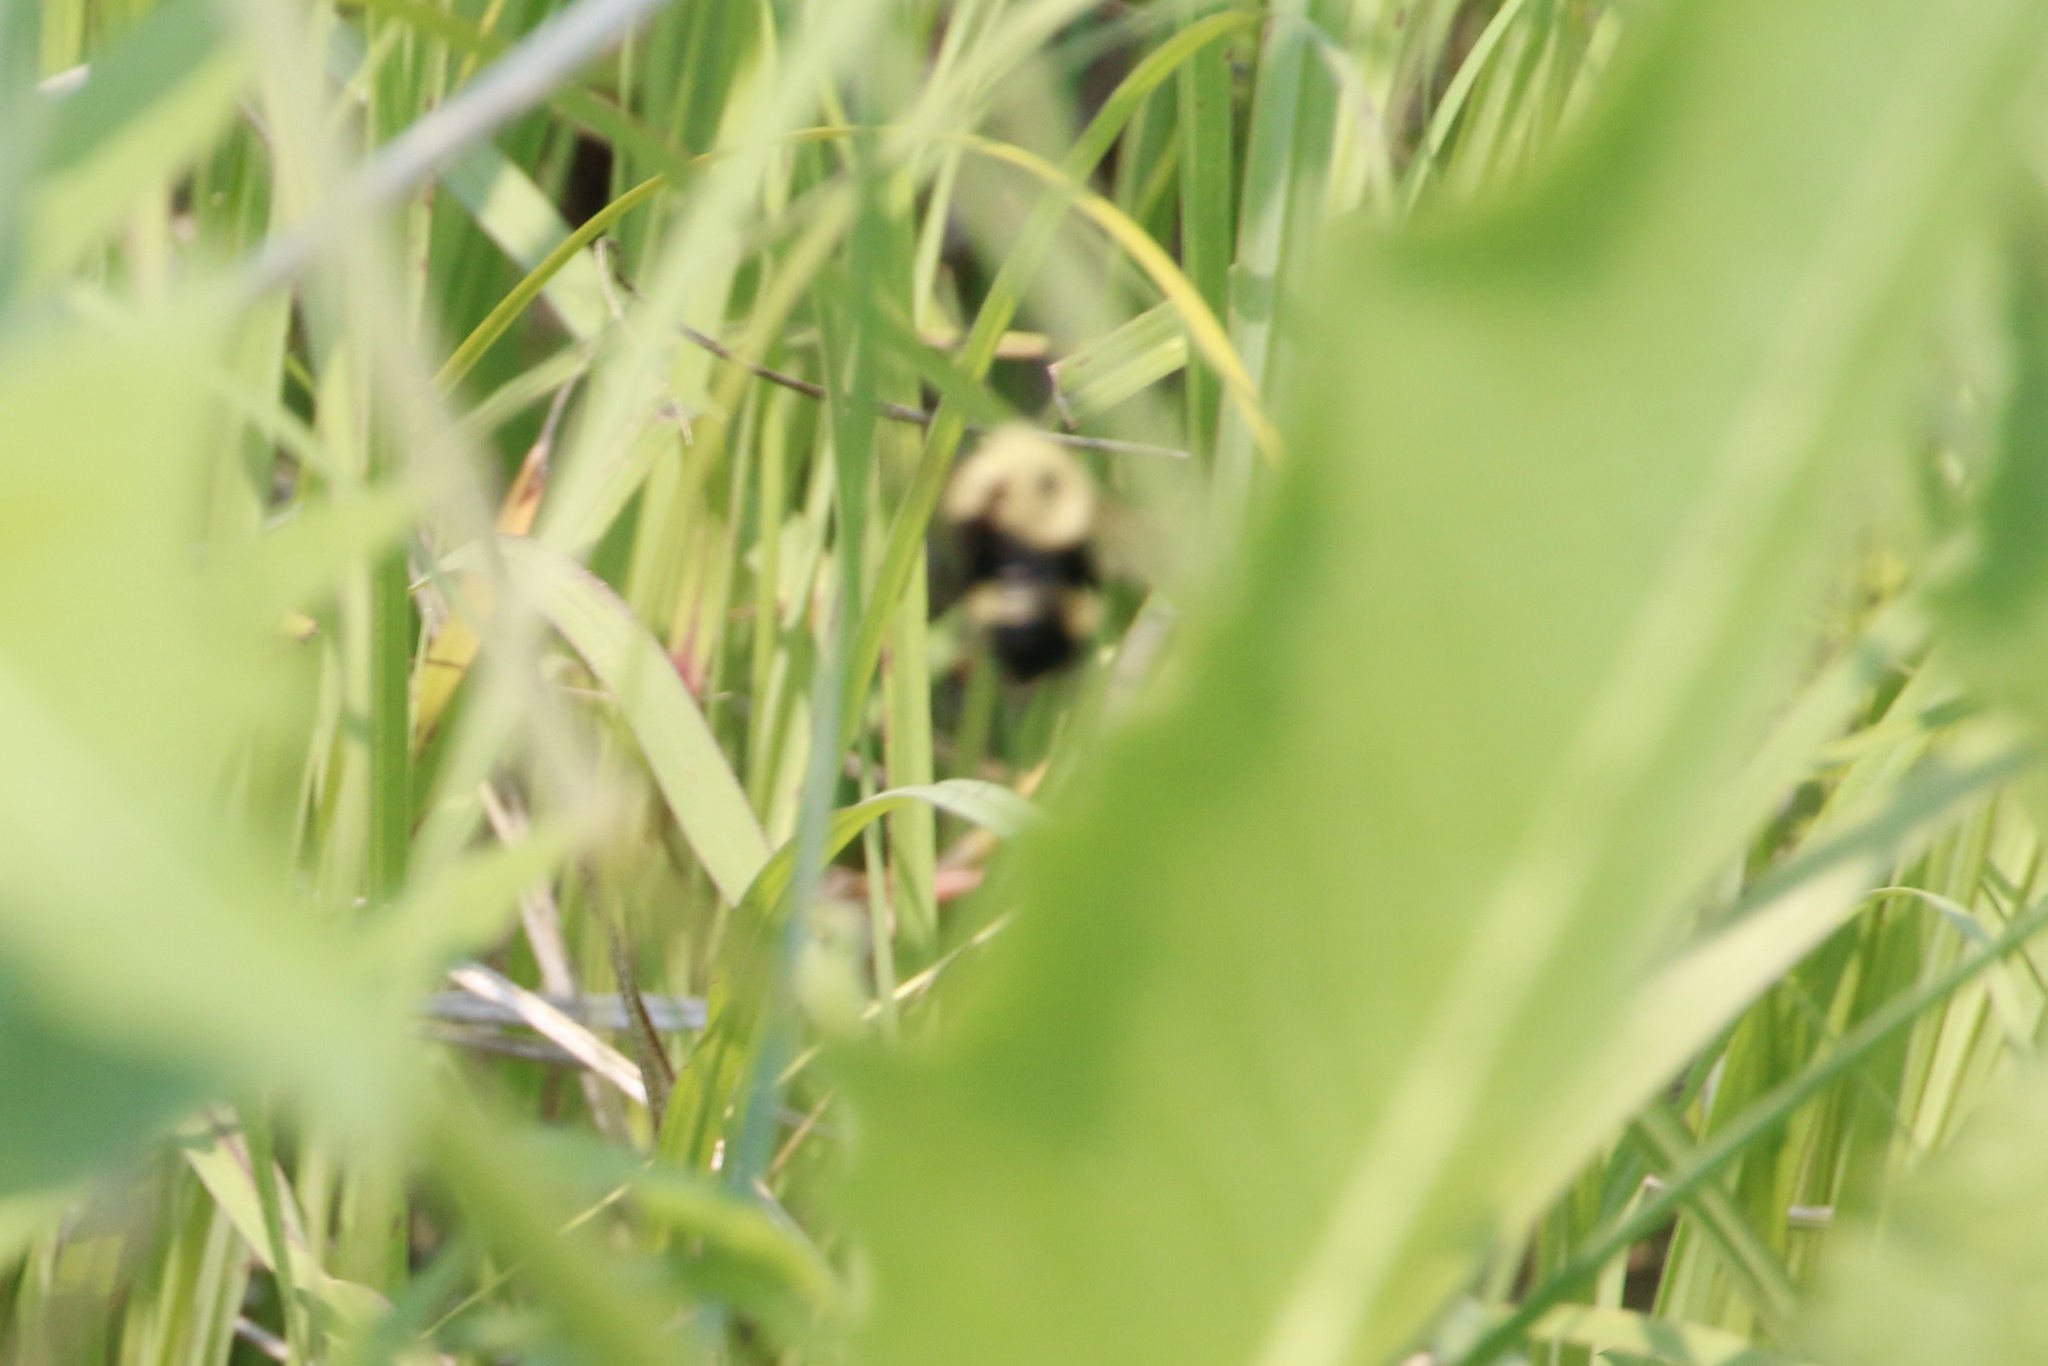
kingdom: Animalia
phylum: Arthropoda
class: Insecta
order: Hymenoptera
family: Apidae
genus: Bombus
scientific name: Bombus citrinus
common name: Lemon cuckoo bumble bee
